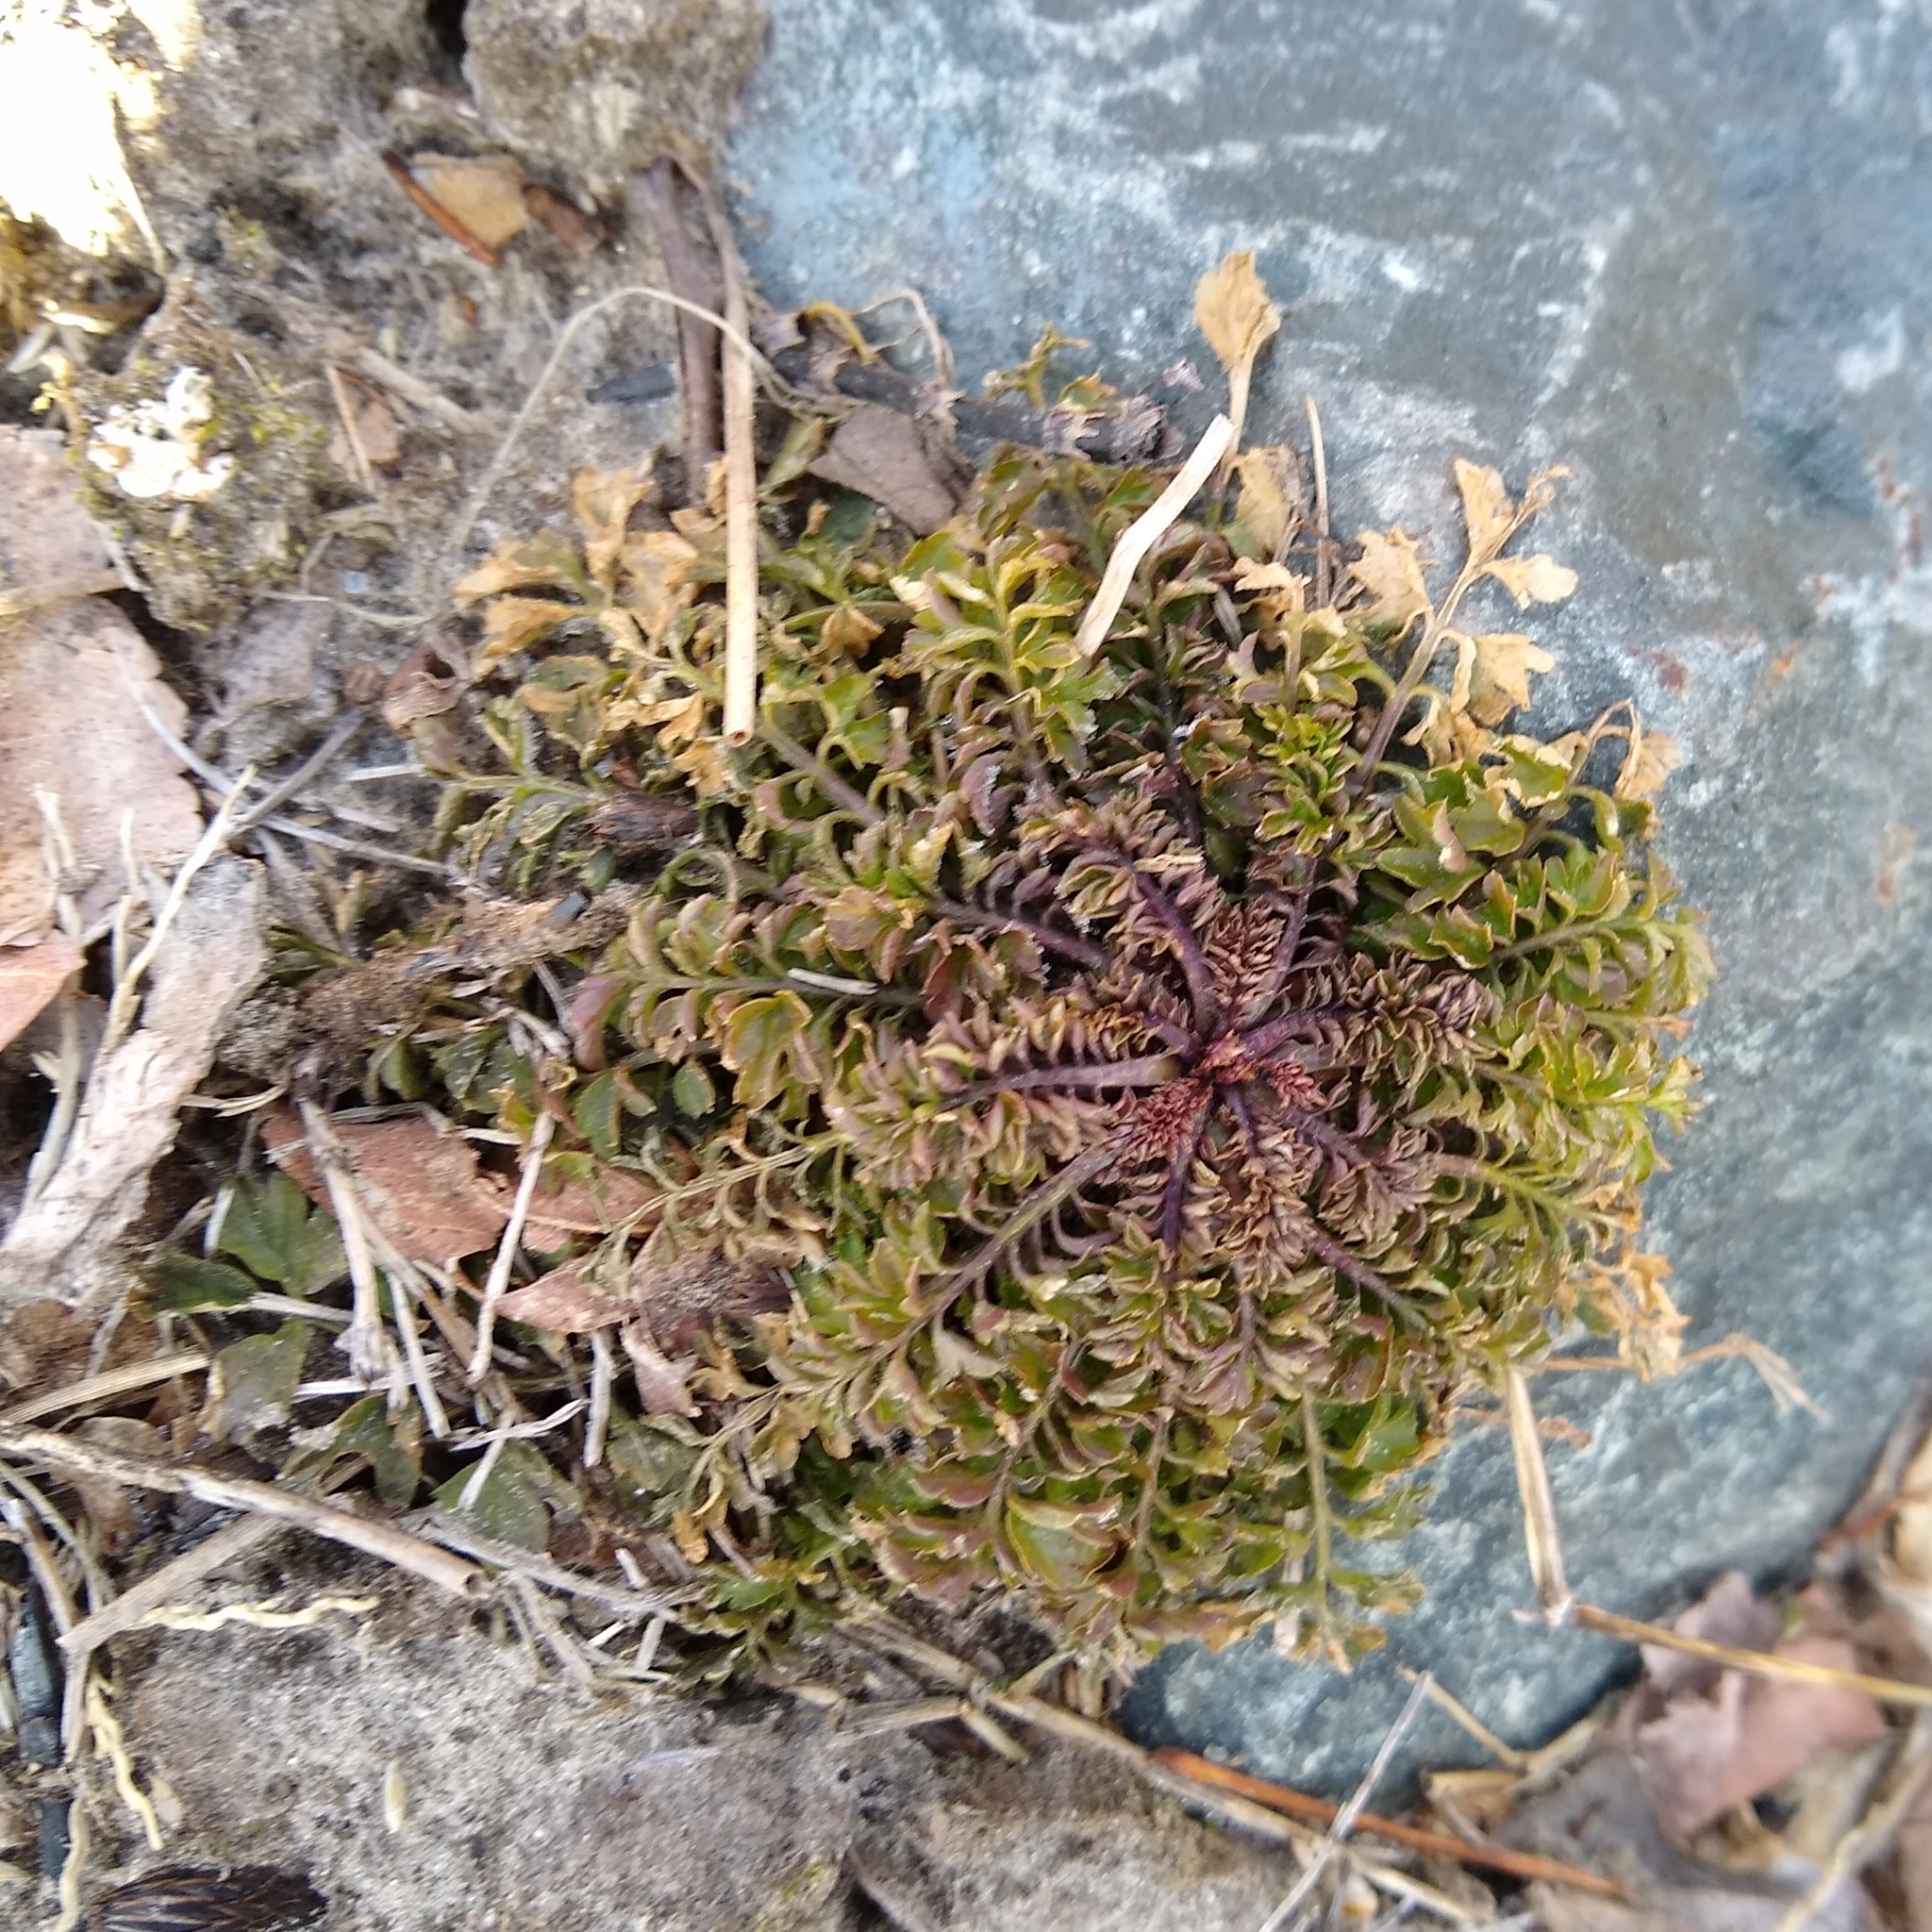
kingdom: Plantae
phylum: Tracheophyta
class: Magnoliopsida
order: Brassicales
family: Brassicaceae
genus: Cardamine
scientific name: Cardamine impatiens
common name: Narrow-leaved bitter-cress
